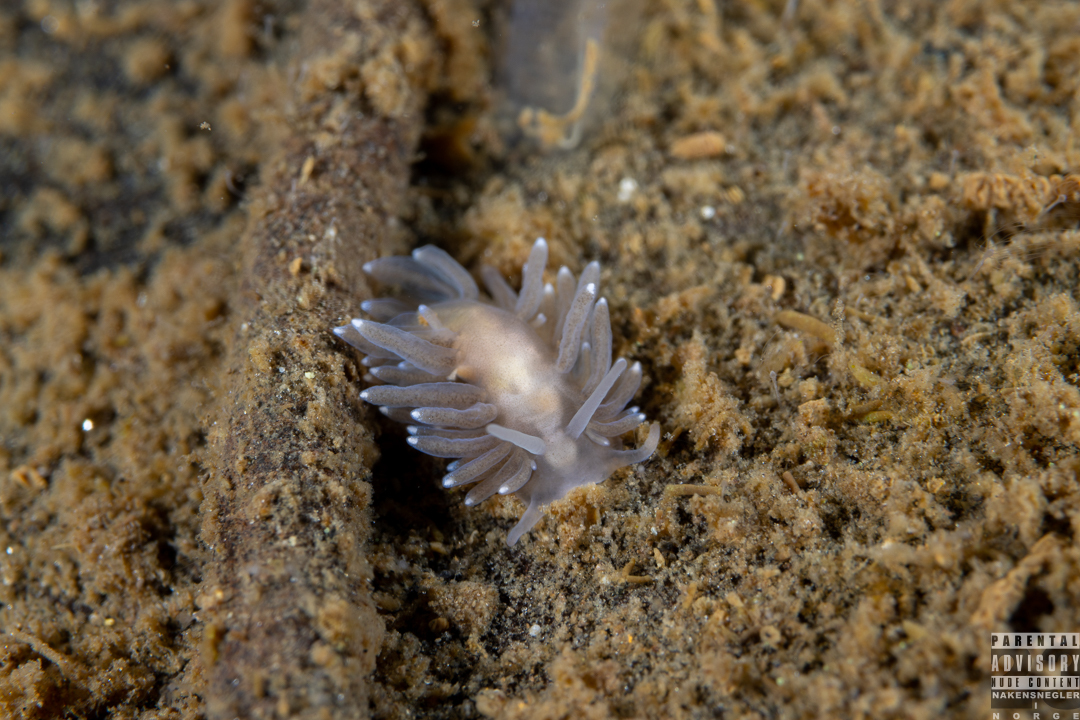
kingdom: Animalia
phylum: Mollusca
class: Gastropoda
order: Nudibranchia
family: Cuthonidae
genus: Bohuslania
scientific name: Bohuslania matsmichaeli
